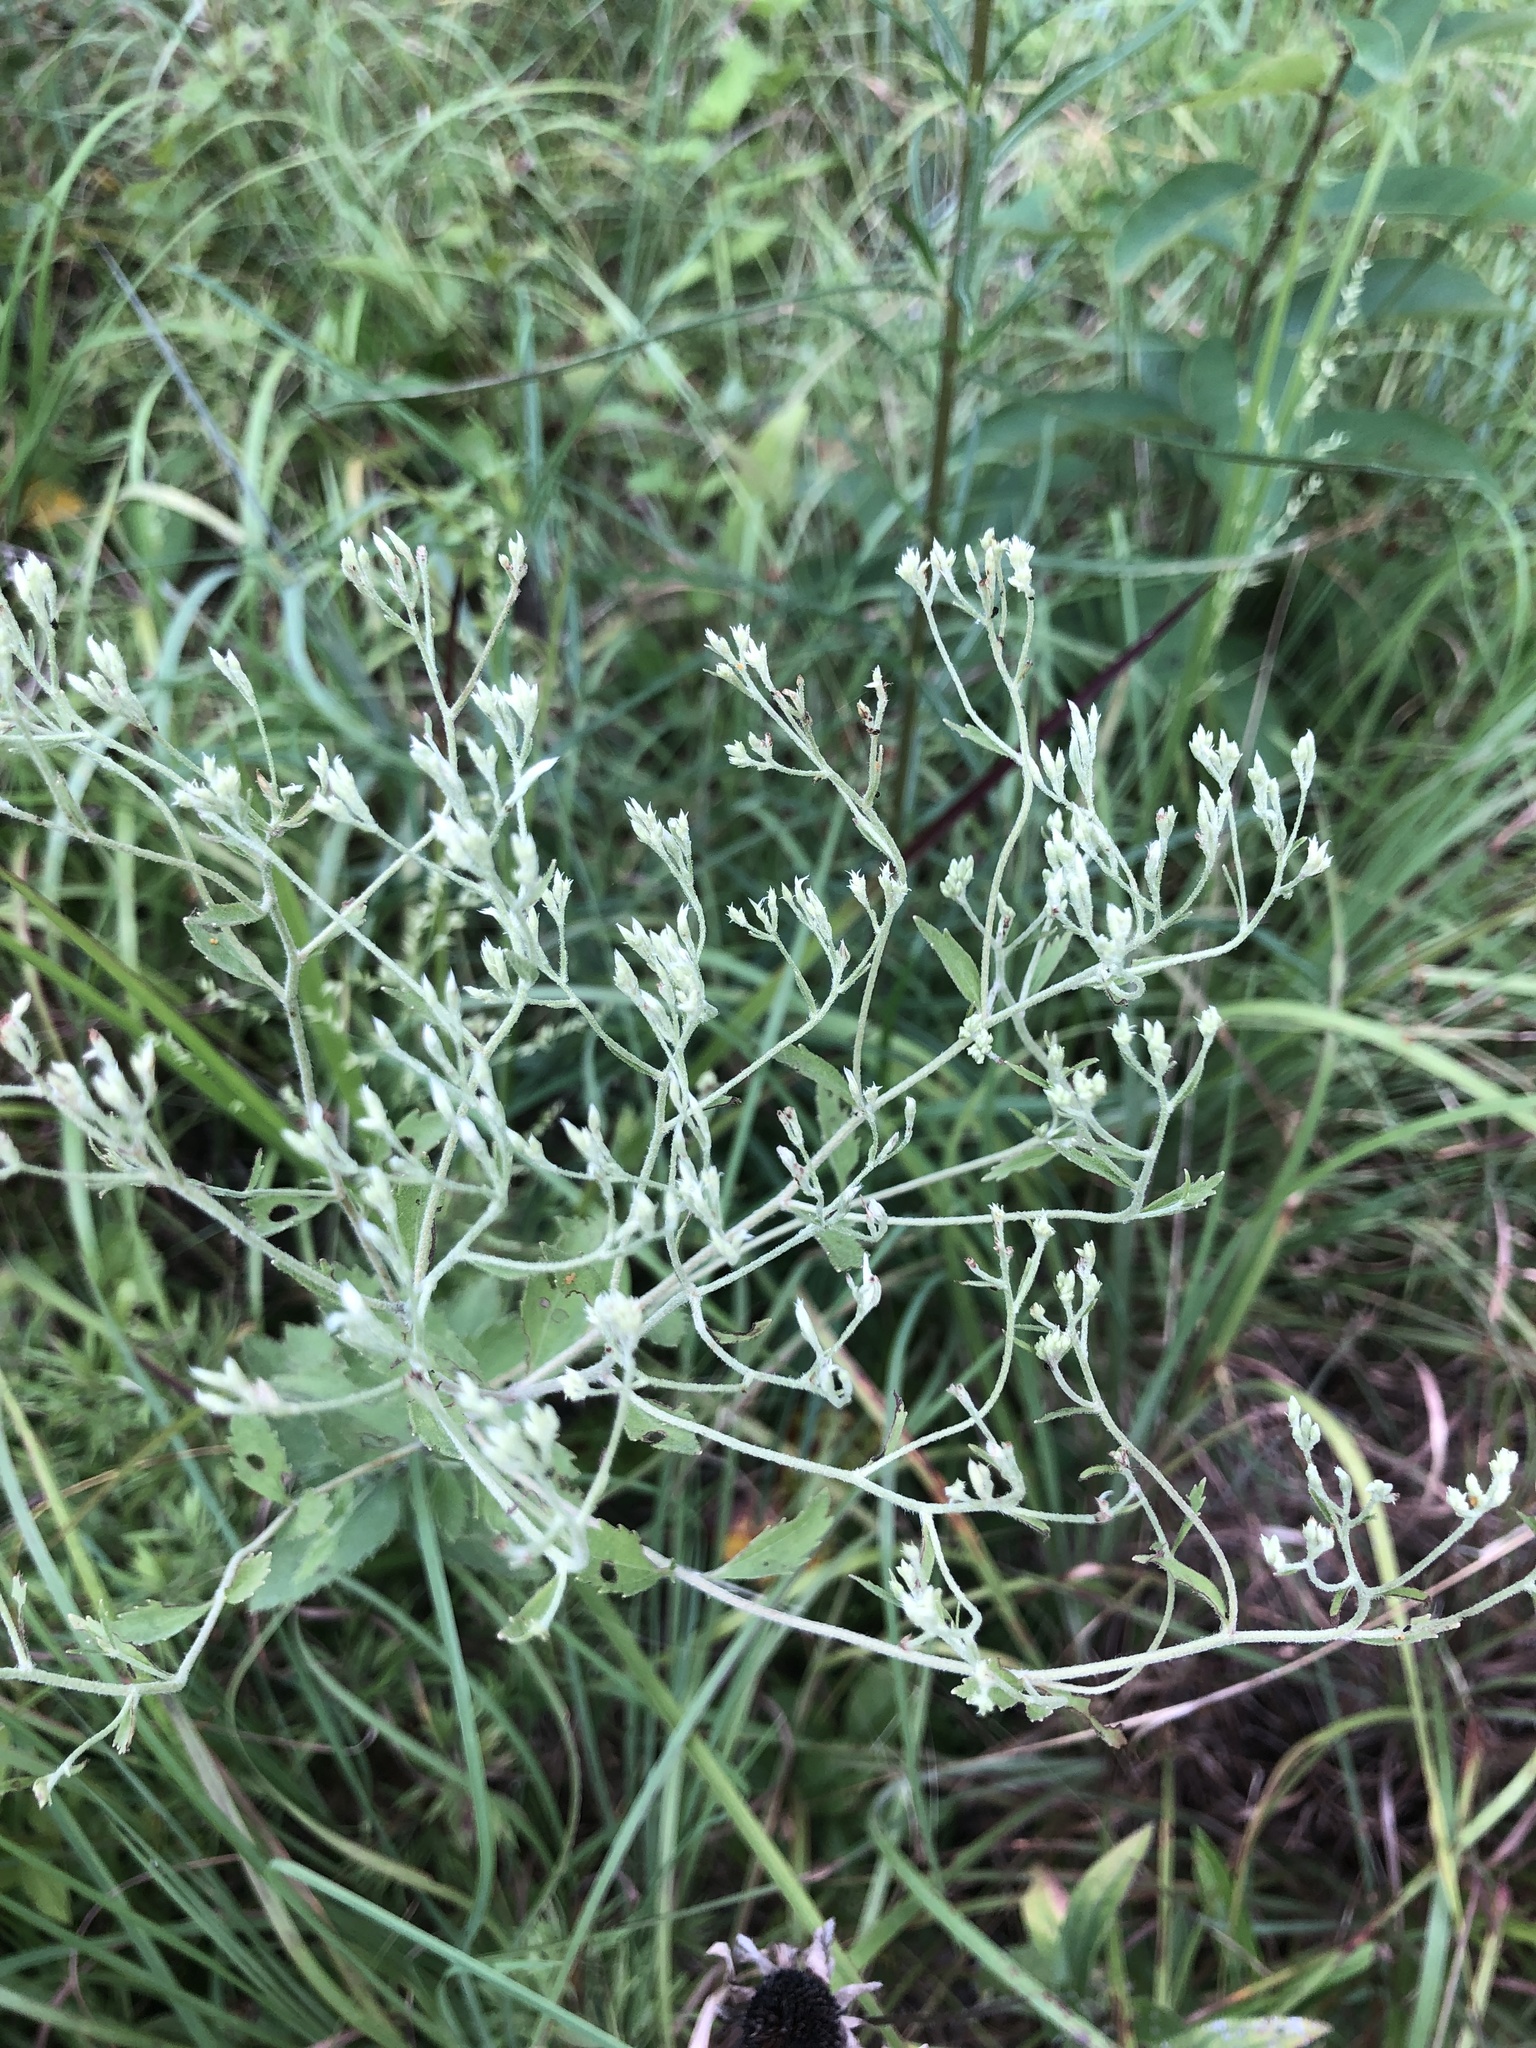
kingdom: Plantae
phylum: Tracheophyta
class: Magnoliopsida
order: Asterales
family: Asteraceae
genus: Eupatorium
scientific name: Eupatorium rotundifolium
